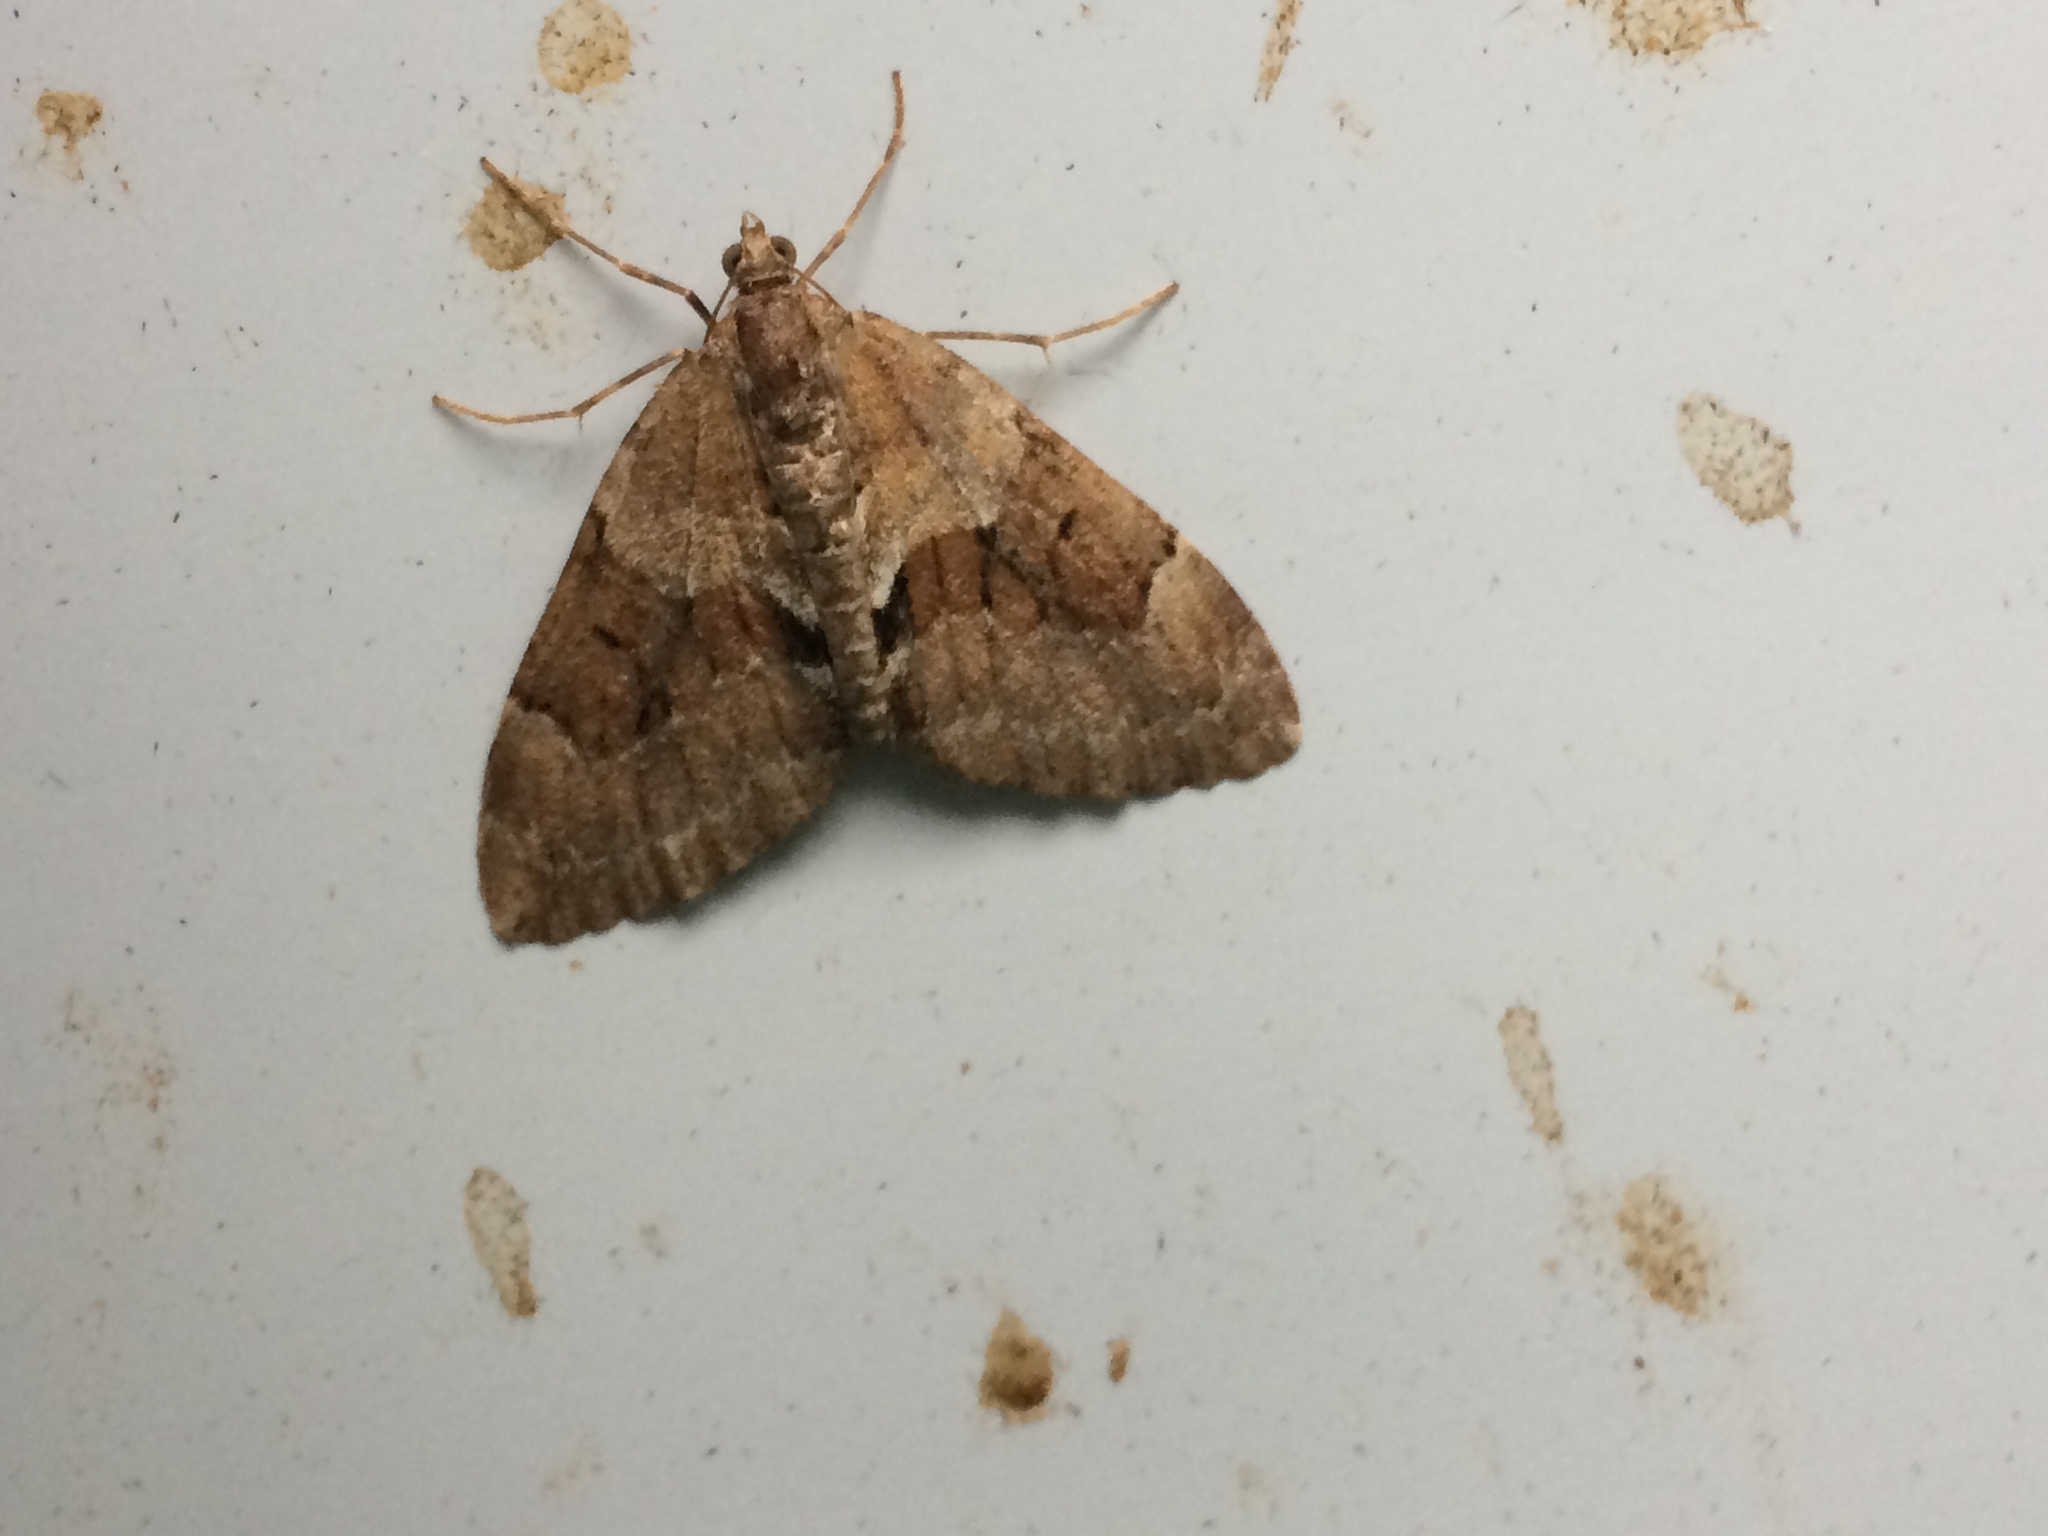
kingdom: Animalia
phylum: Arthropoda
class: Insecta
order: Lepidoptera
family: Geometridae
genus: Thera
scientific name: Thera obeliscata
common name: Grey pine carpet
